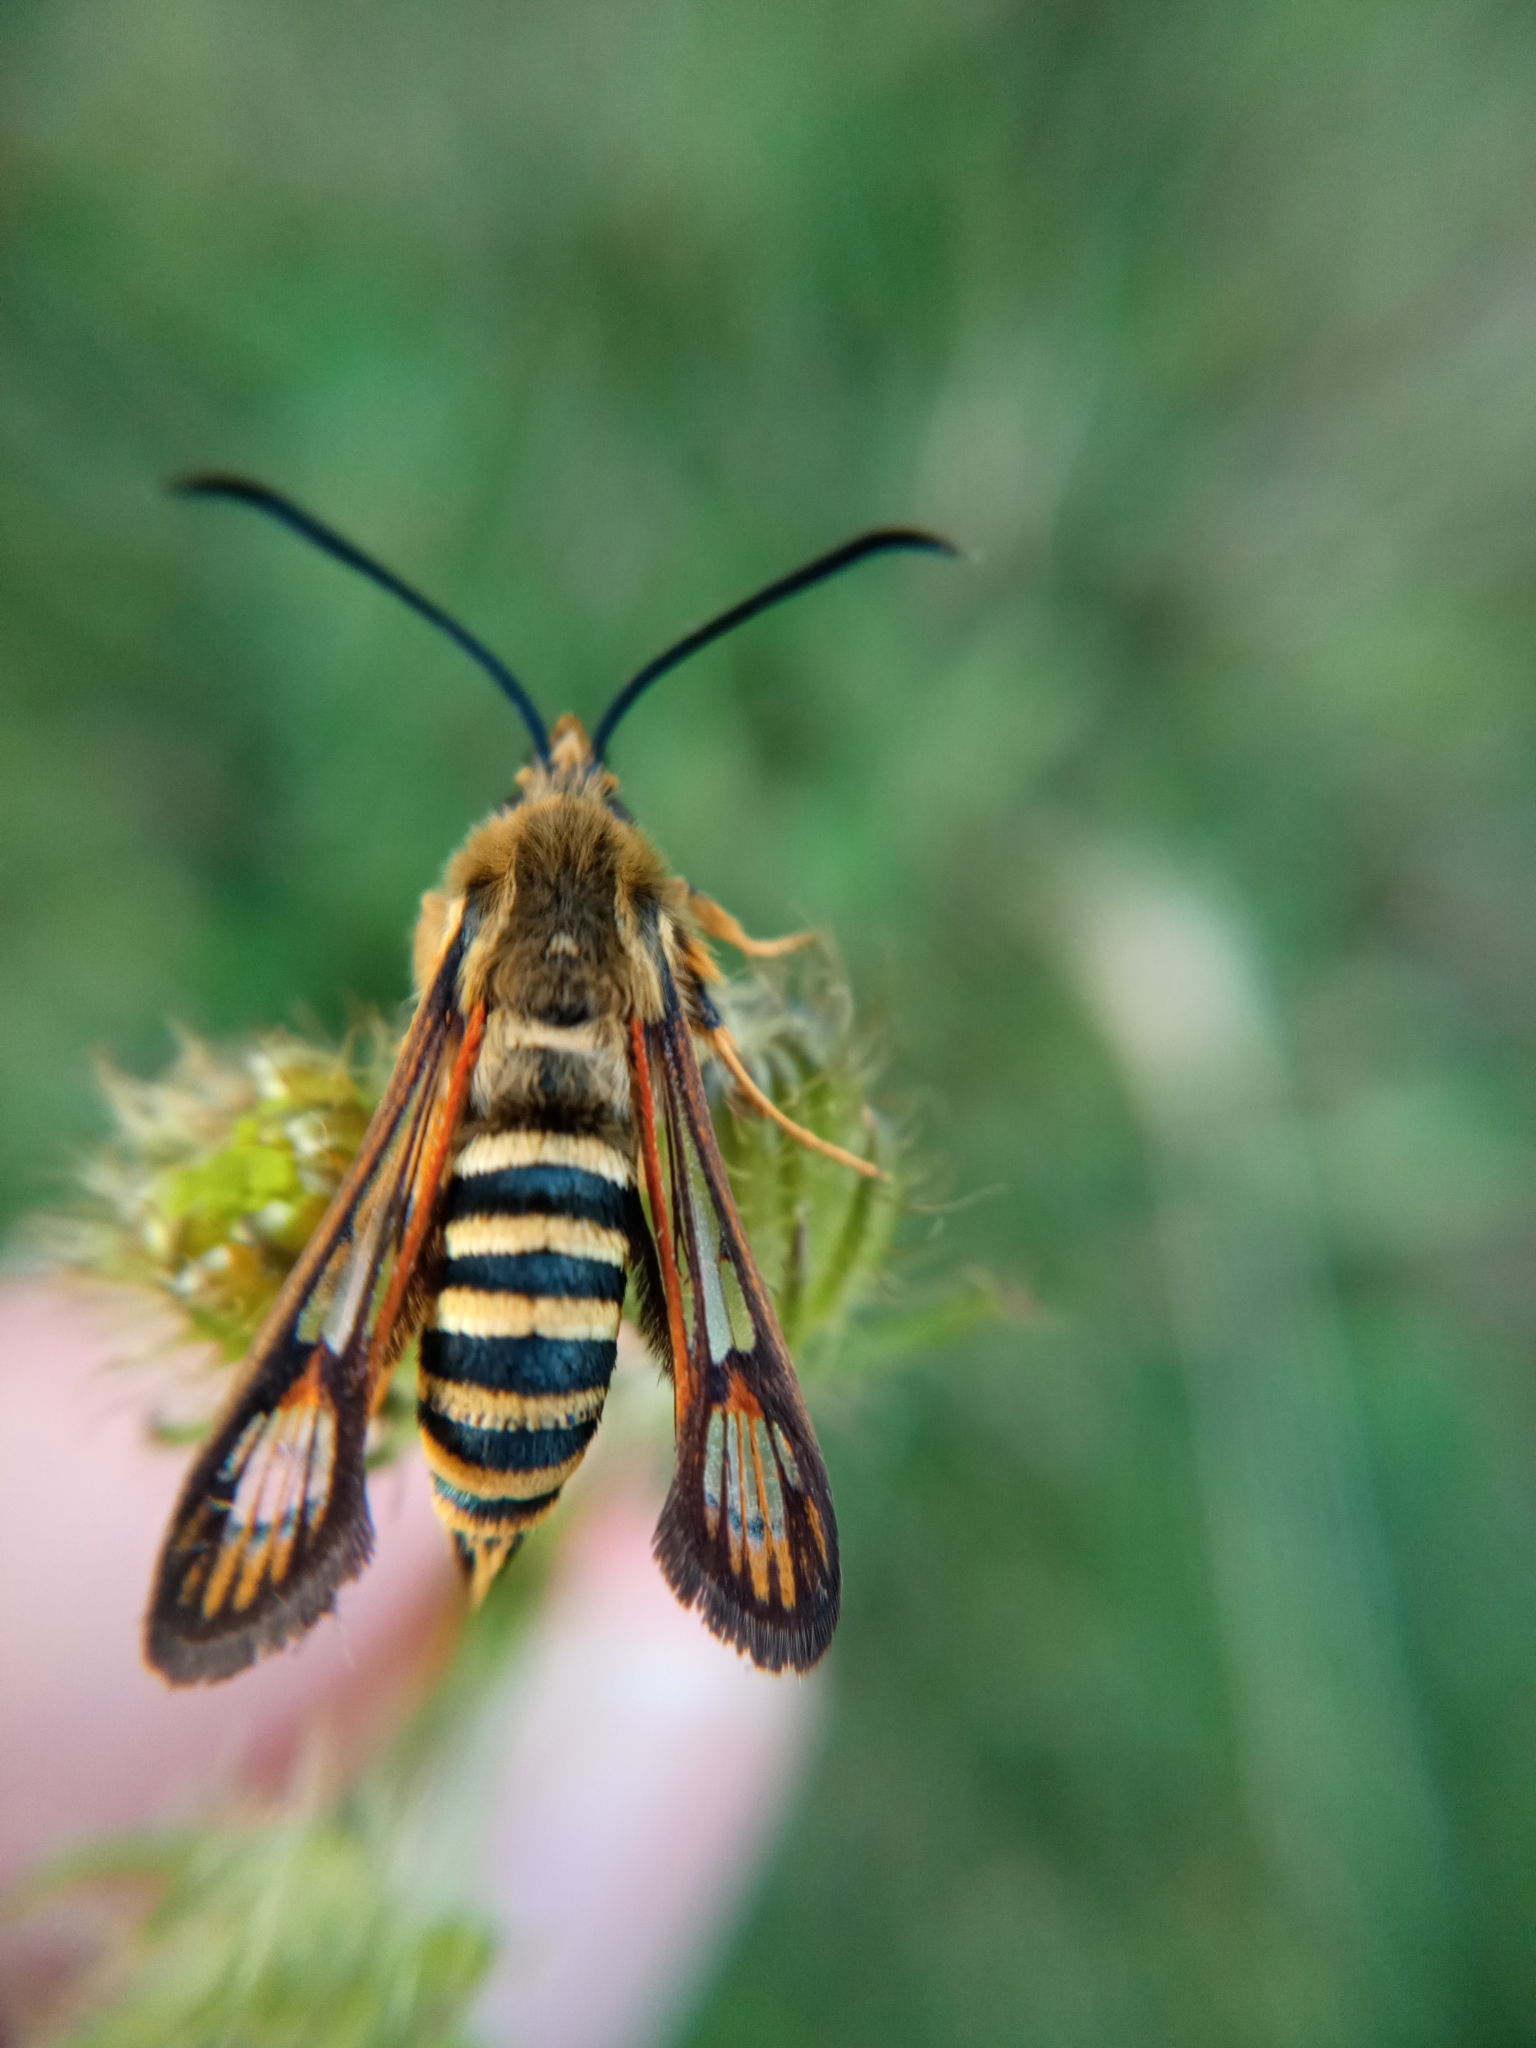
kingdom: Animalia
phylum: Arthropoda
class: Insecta
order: Lepidoptera
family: Sesiidae
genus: Bembecia
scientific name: Bembecia ichneumoniformis
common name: Six-belted clearwing
